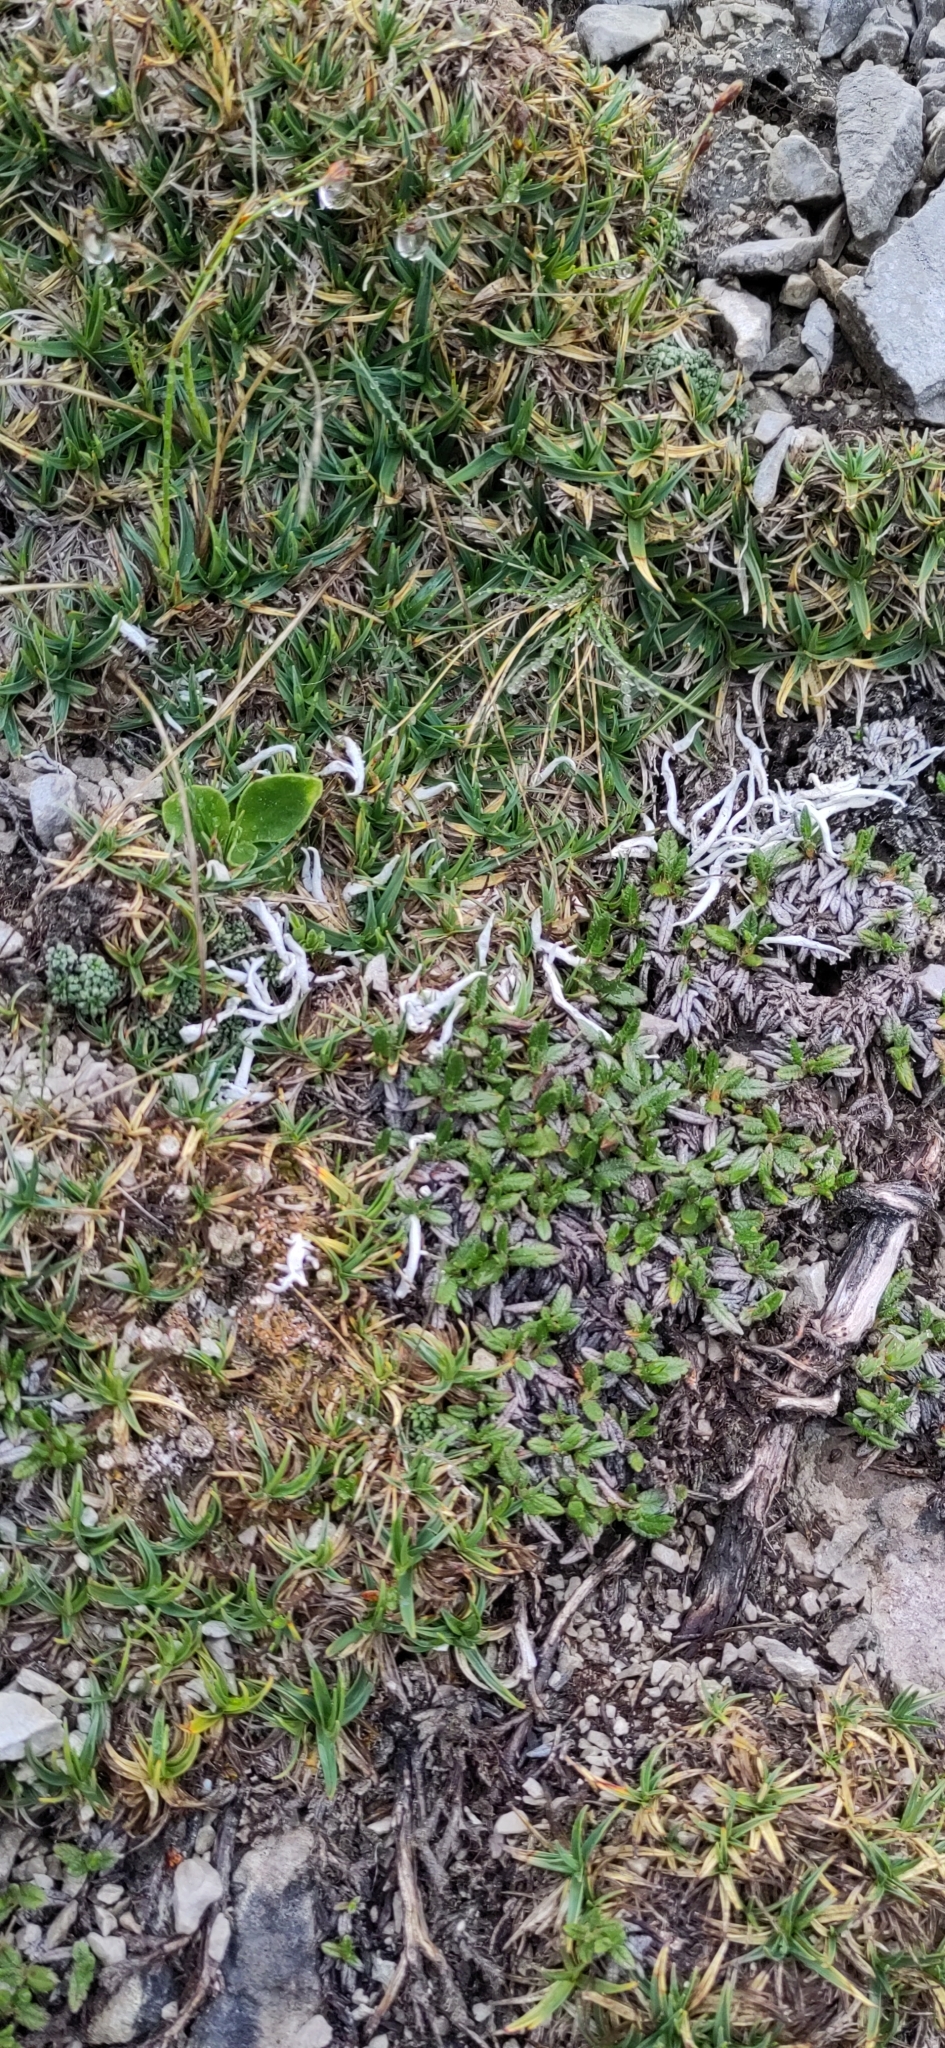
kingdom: Fungi
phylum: Ascomycota
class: Lecanoromycetes
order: Pertusariales
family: Icmadophilaceae
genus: Thamnolia
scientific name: Thamnolia vermicularis
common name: Whiteworm lichen
